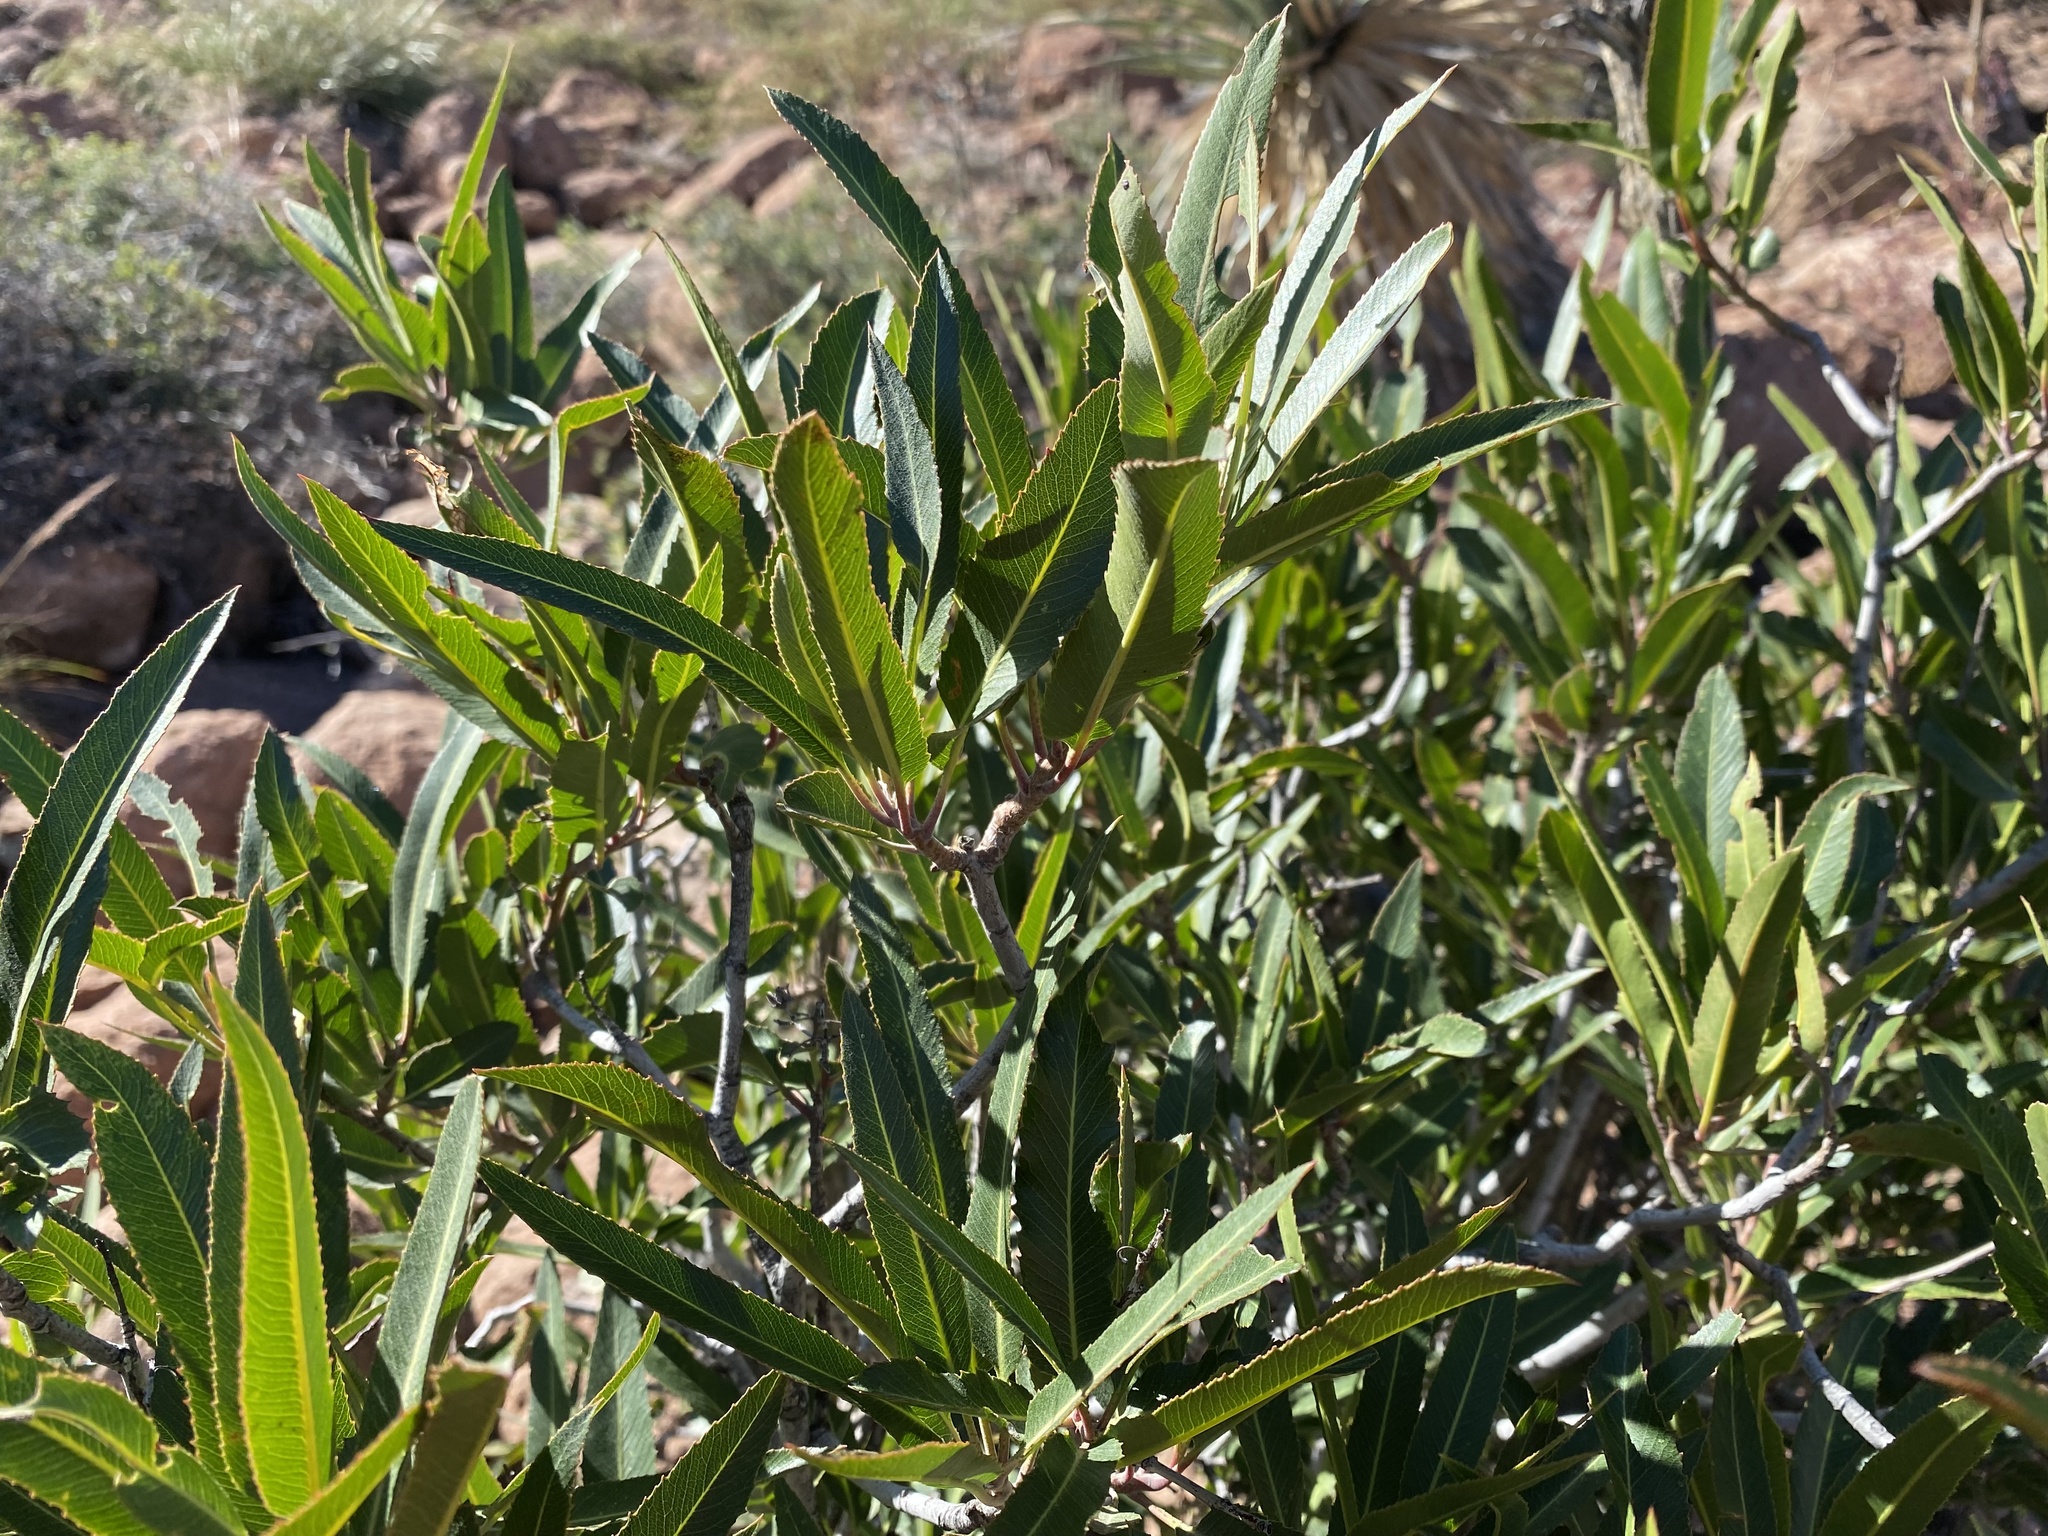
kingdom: Plantae
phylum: Tracheophyta
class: Magnoliopsida
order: Rosales
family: Rosaceae
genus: Vauquelinia
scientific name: Vauquelinia californica
